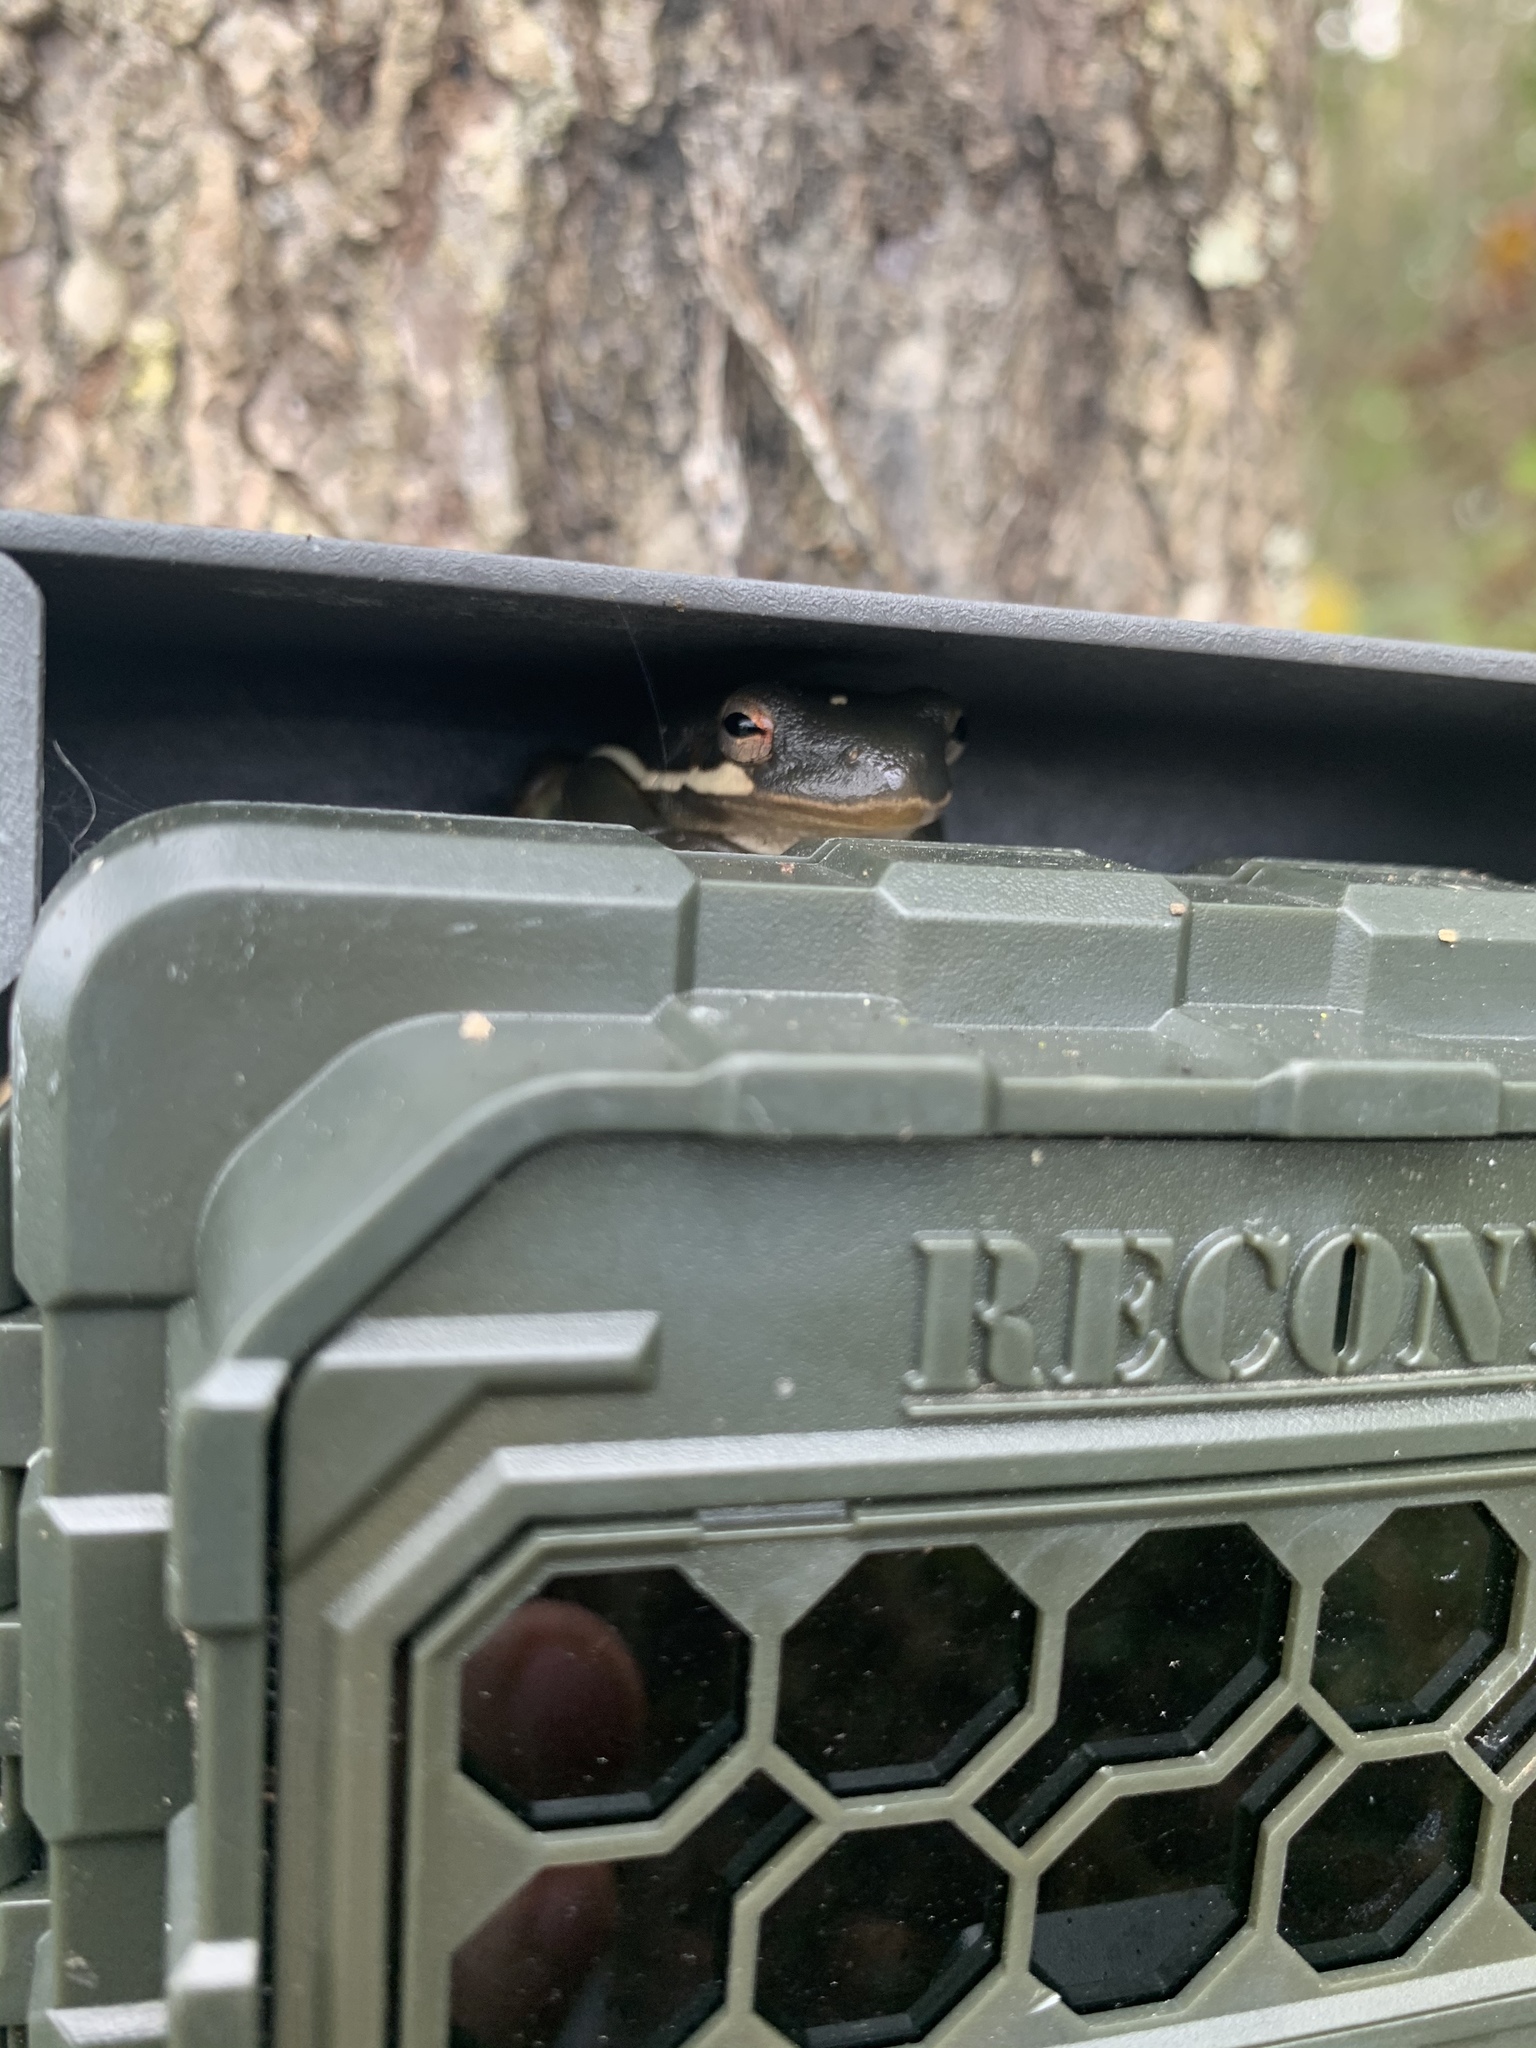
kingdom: Animalia
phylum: Chordata
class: Amphibia
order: Anura
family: Hylidae
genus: Dryophytes
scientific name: Dryophytes cinereus
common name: Green treefrog
